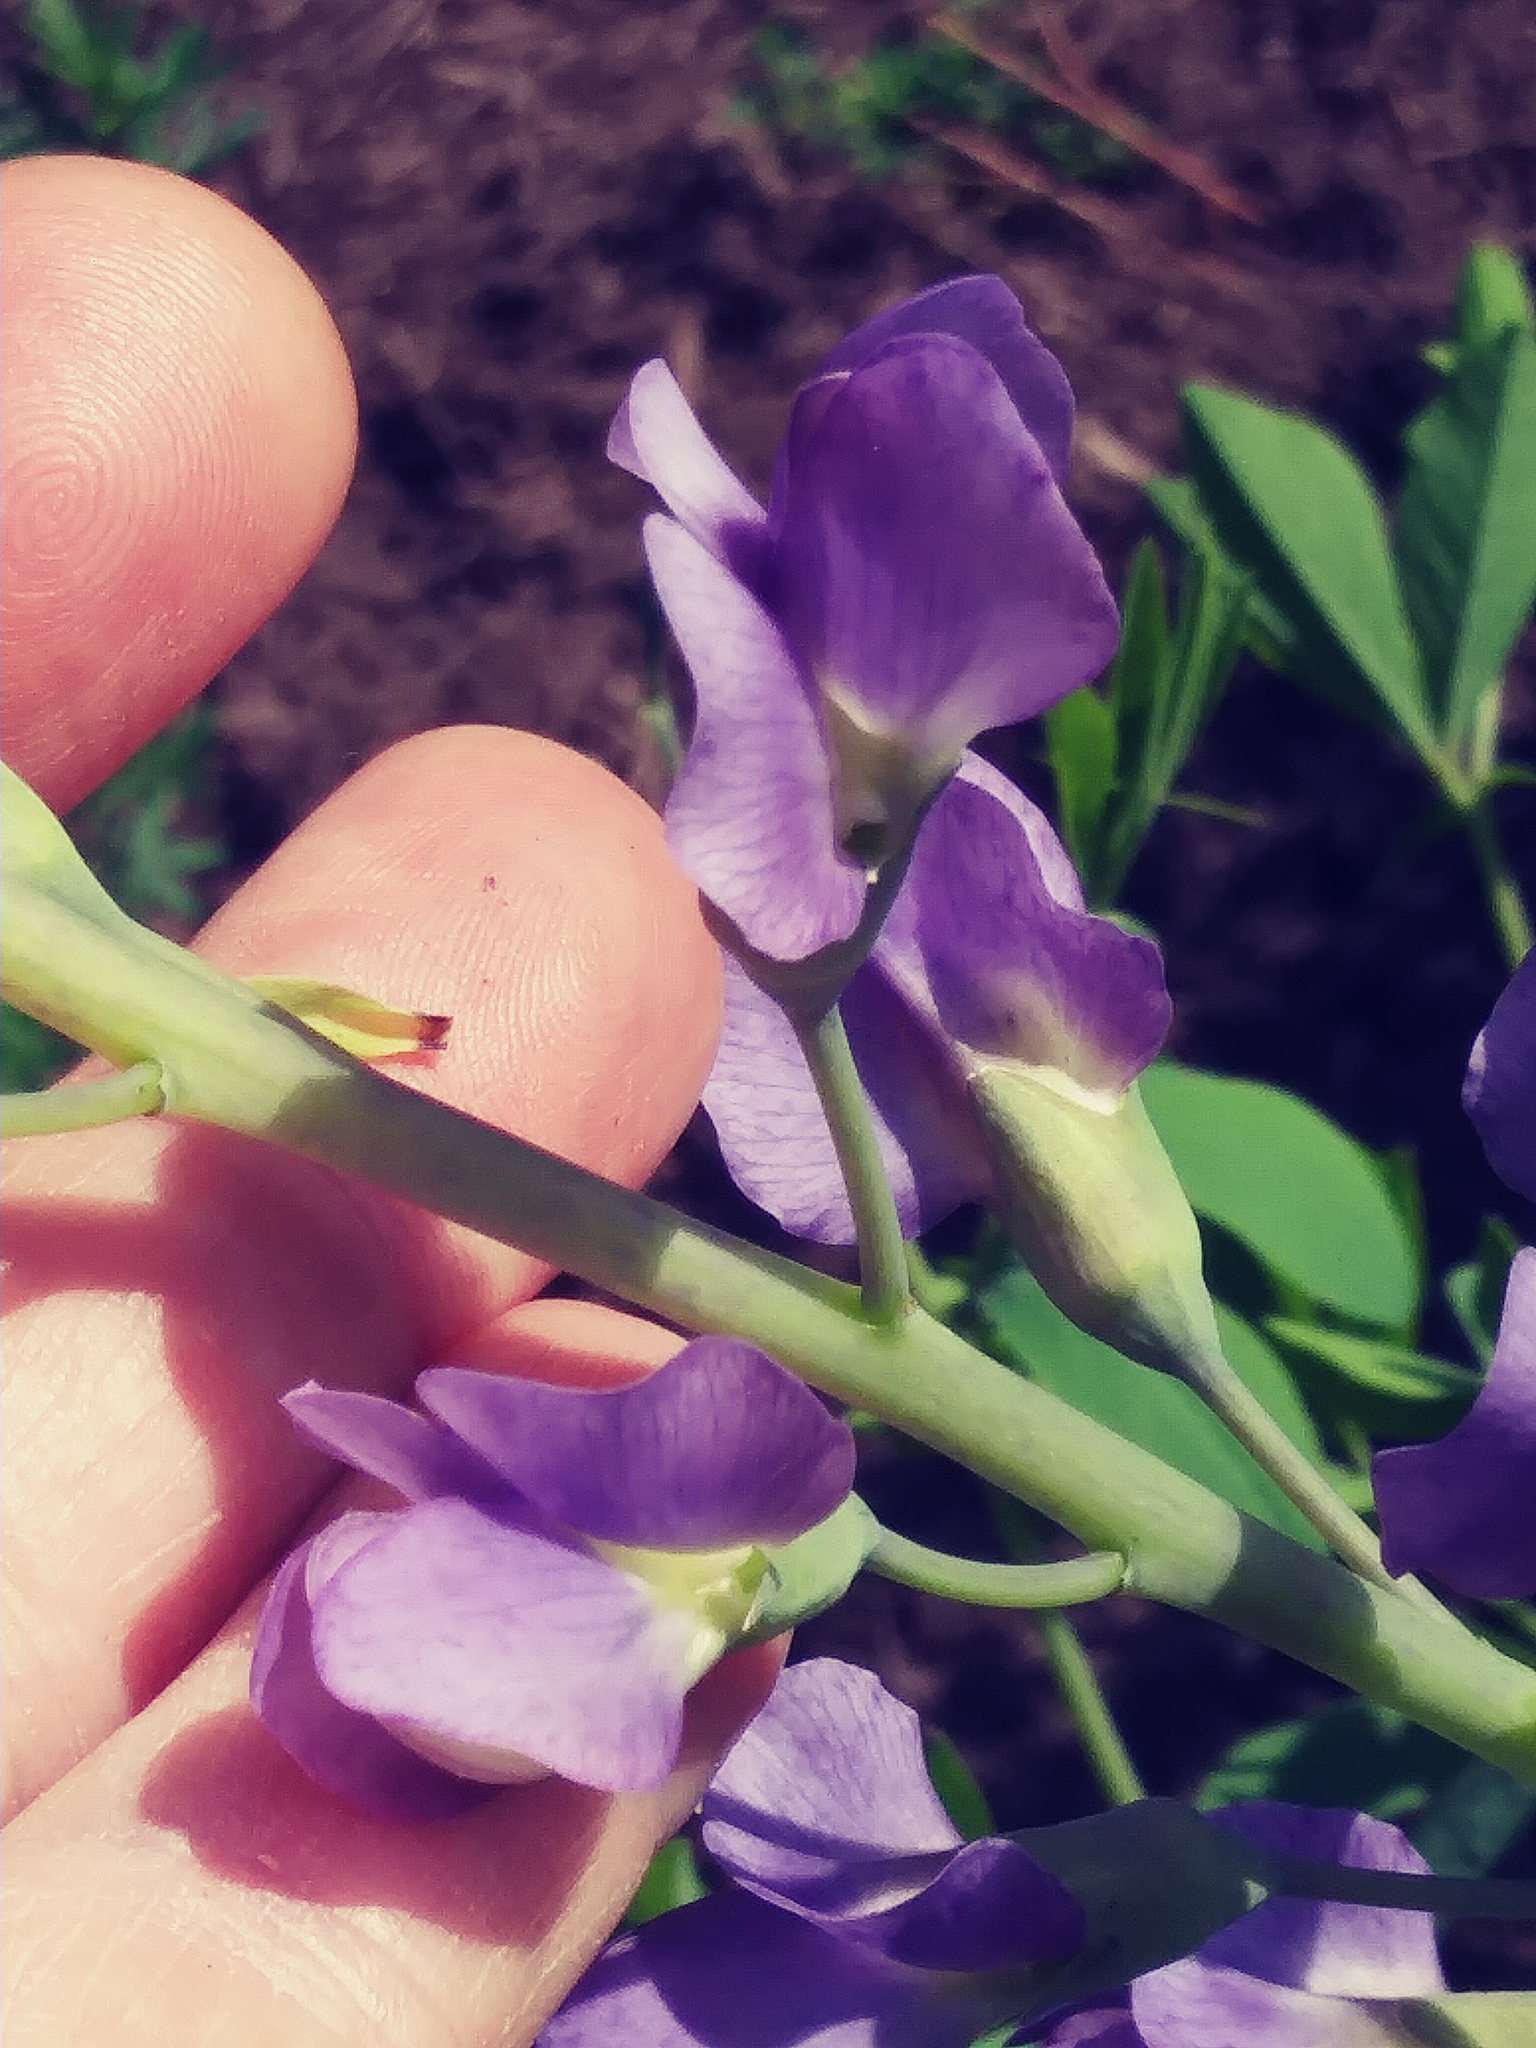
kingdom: Plantae
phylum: Tracheophyta
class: Magnoliopsida
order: Fabales
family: Fabaceae
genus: Baptisia
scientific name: Baptisia australis
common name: Blue false indigo
